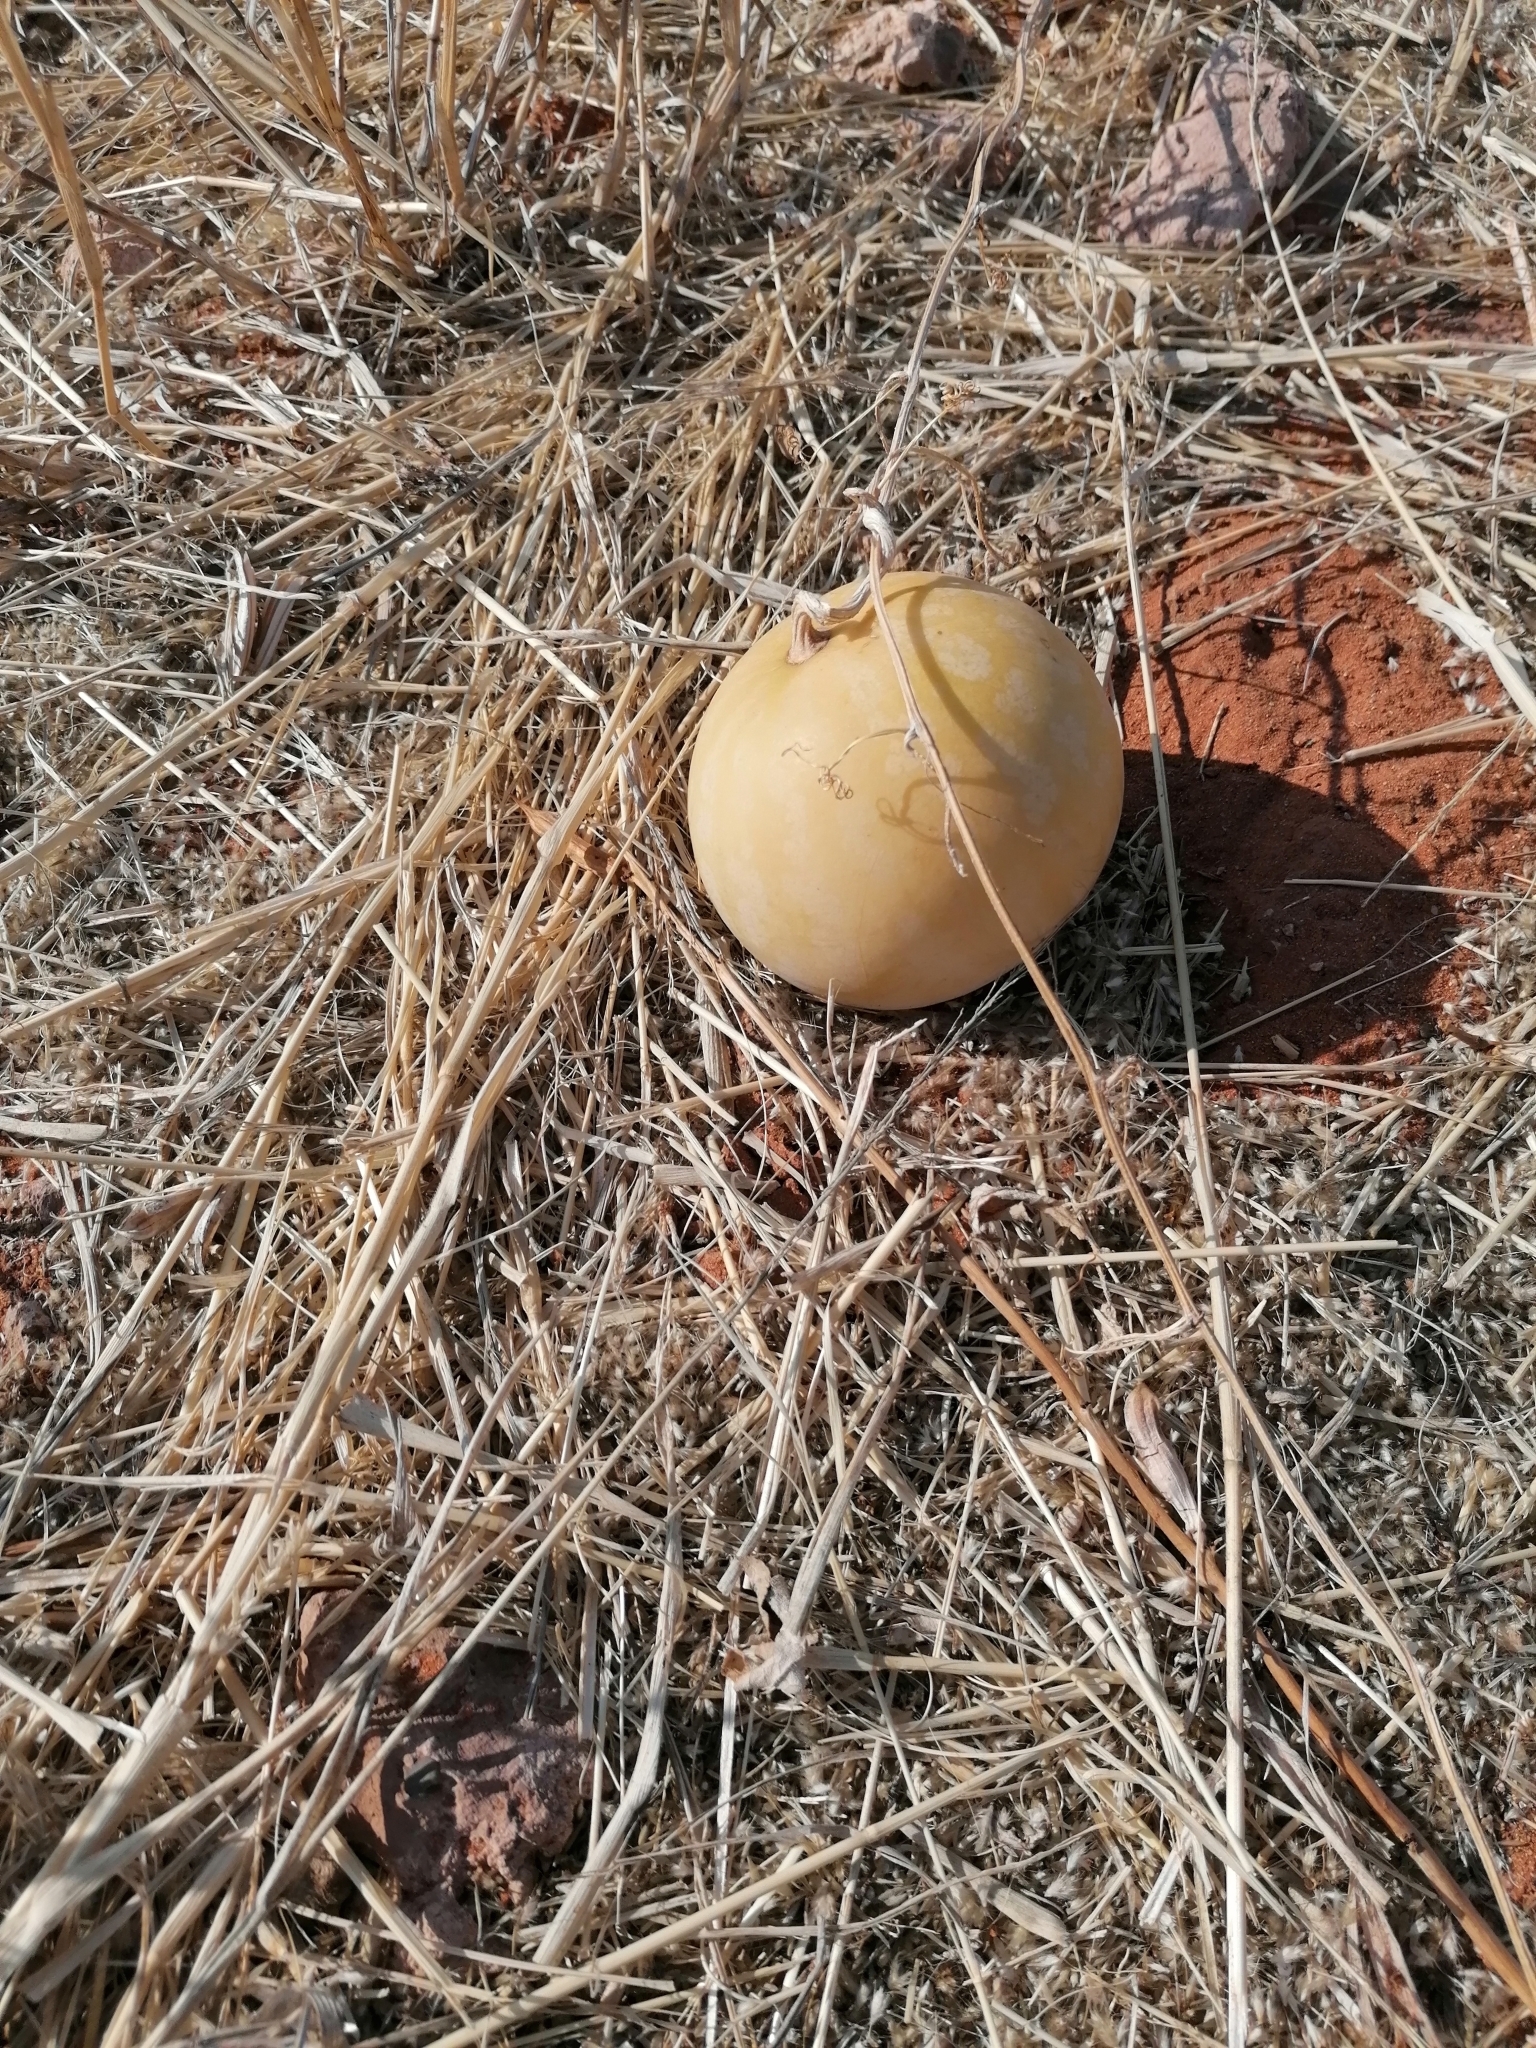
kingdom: Plantae
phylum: Tracheophyta
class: Magnoliopsida
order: Cucurbitales
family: Cucurbitaceae
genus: Citrullus
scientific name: Citrullus amarus
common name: Fodder-melon
